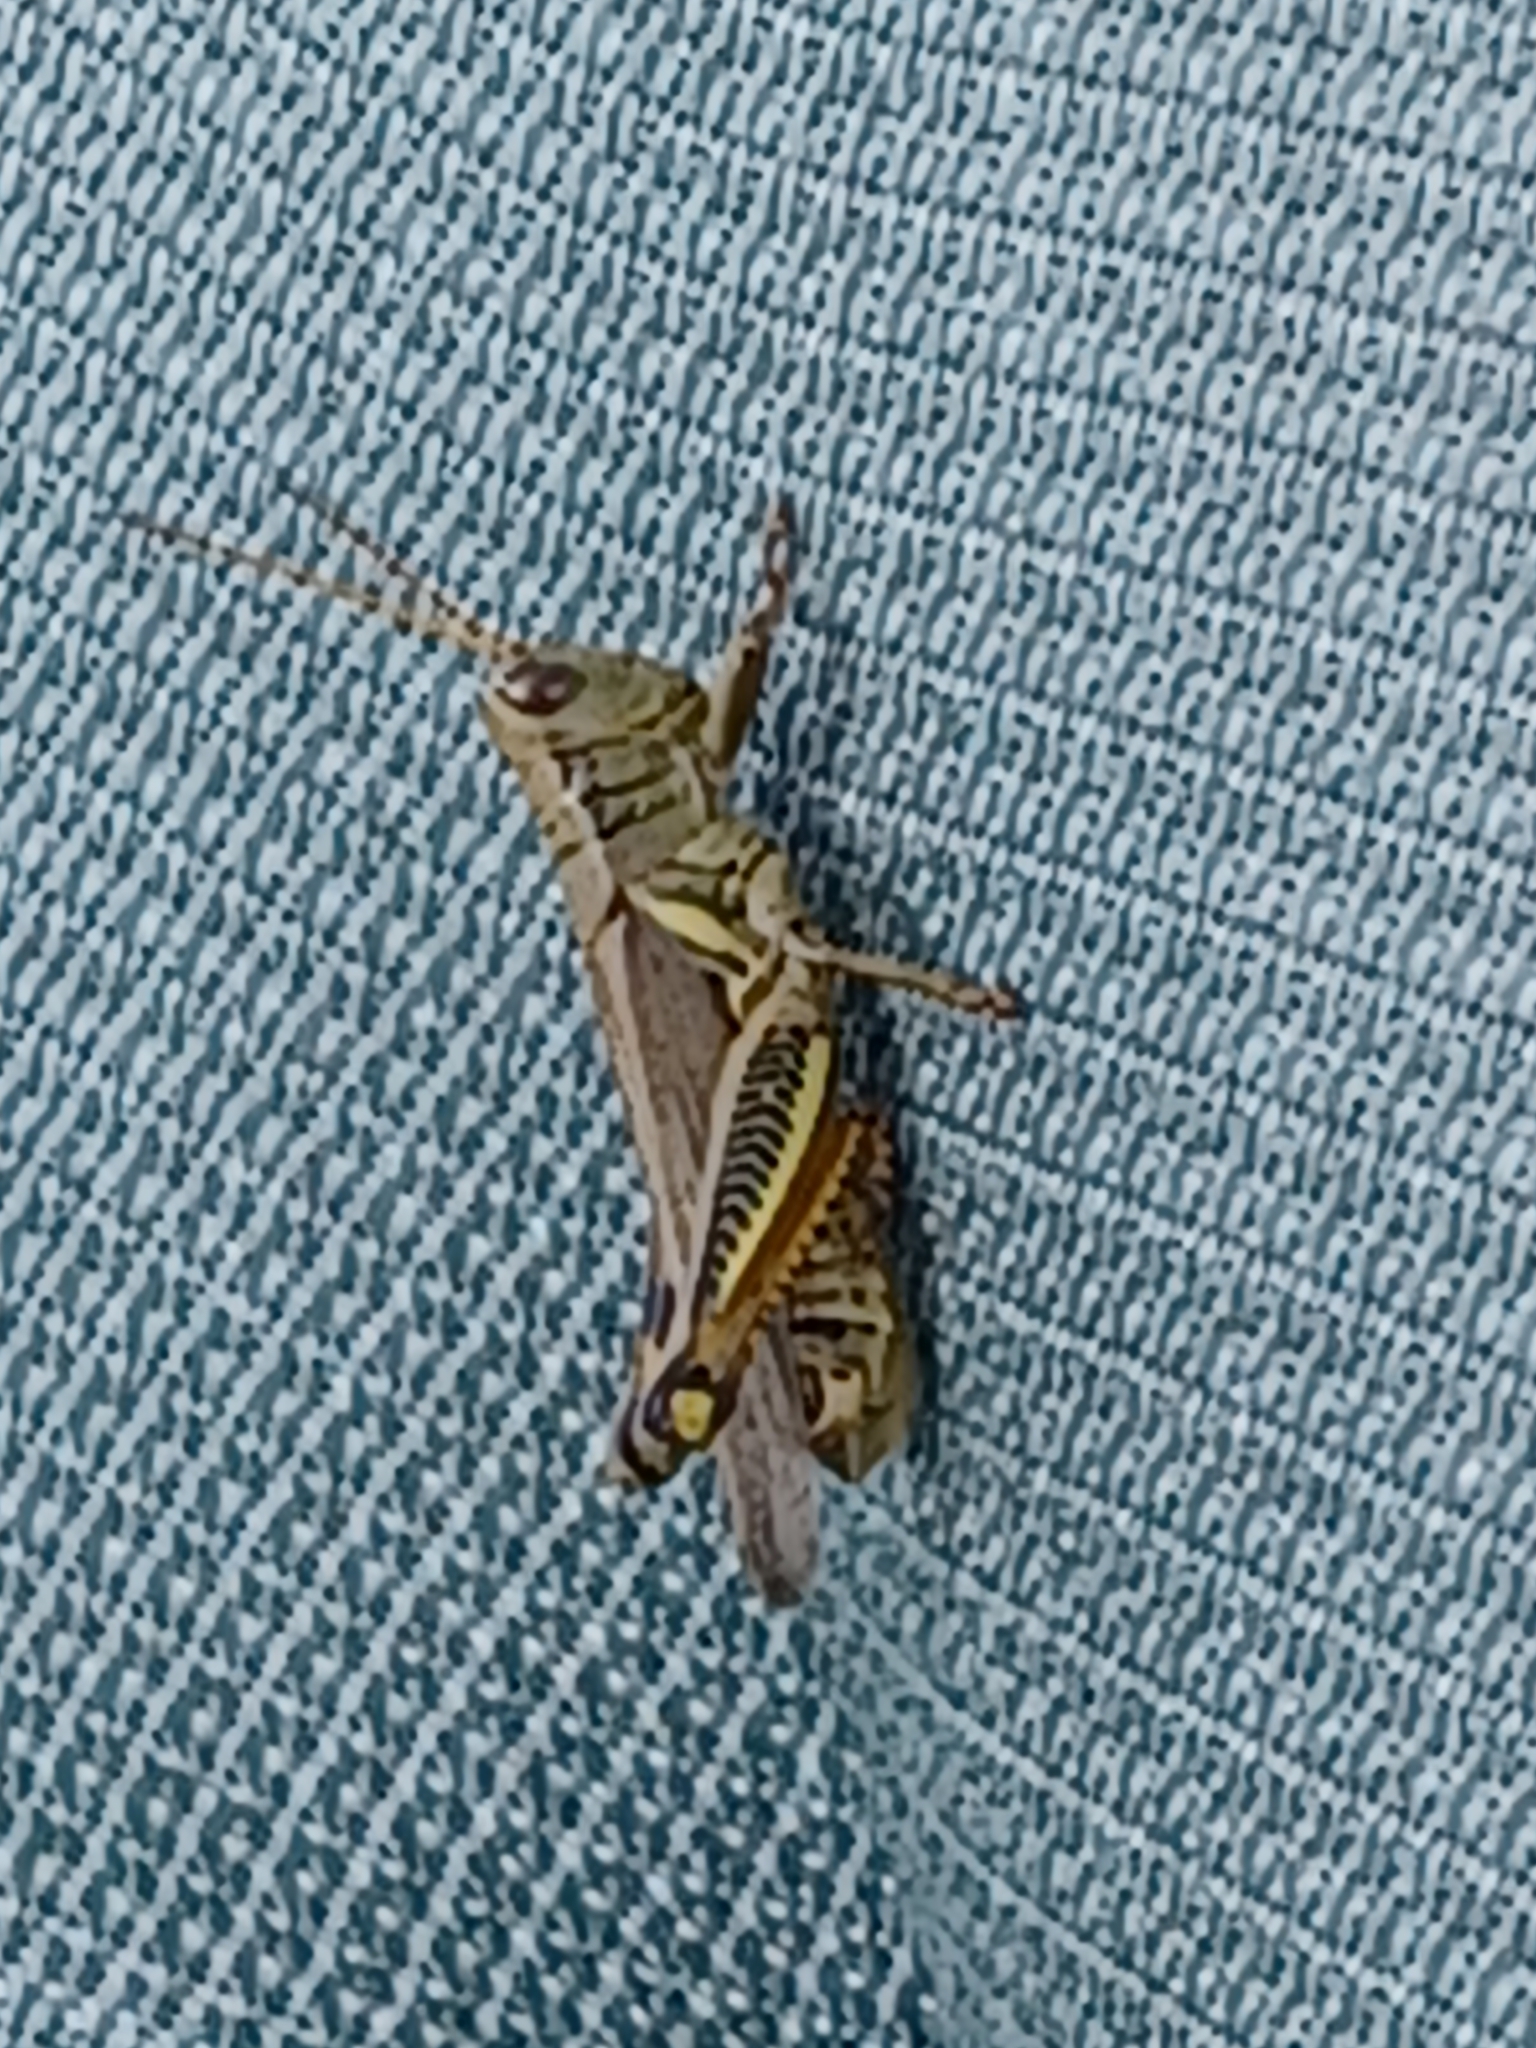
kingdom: Animalia
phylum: Arthropoda
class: Insecta
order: Orthoptera
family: Acrididae
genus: Melanoplus
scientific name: Melanoplus differentialis
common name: Differential grasshopper
